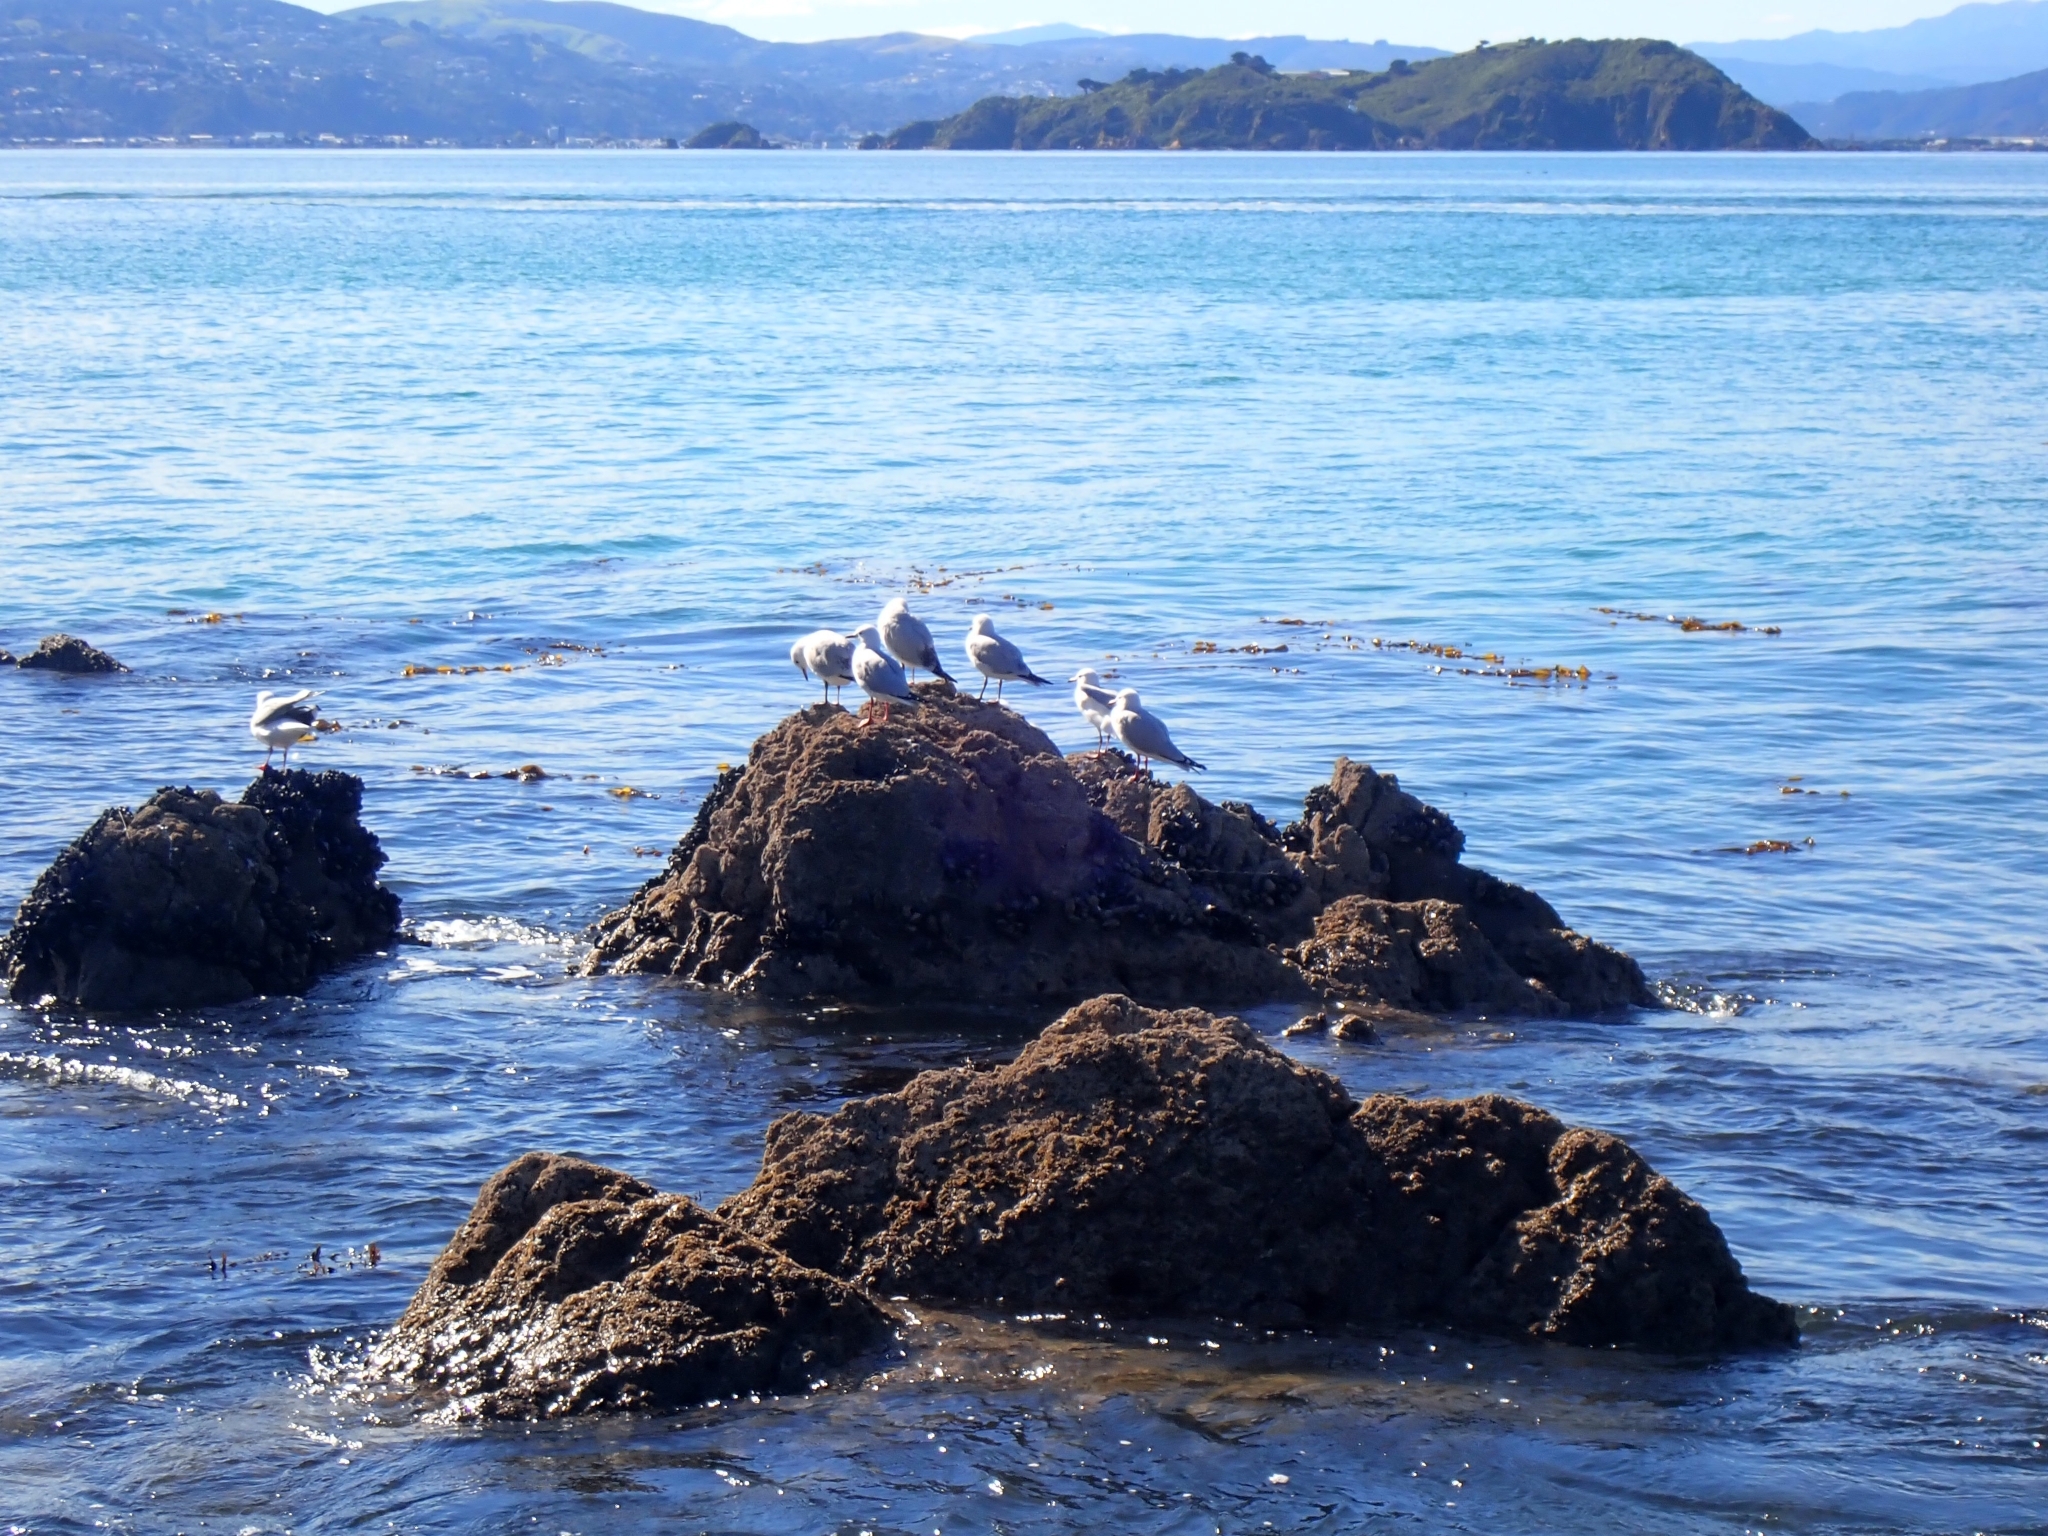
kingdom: Animalia
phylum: Chordata
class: Aves
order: Charadriiformes
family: Laridae
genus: Chroicocephalus
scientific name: Chroicocephalus novaehollandiae
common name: Silver gull
